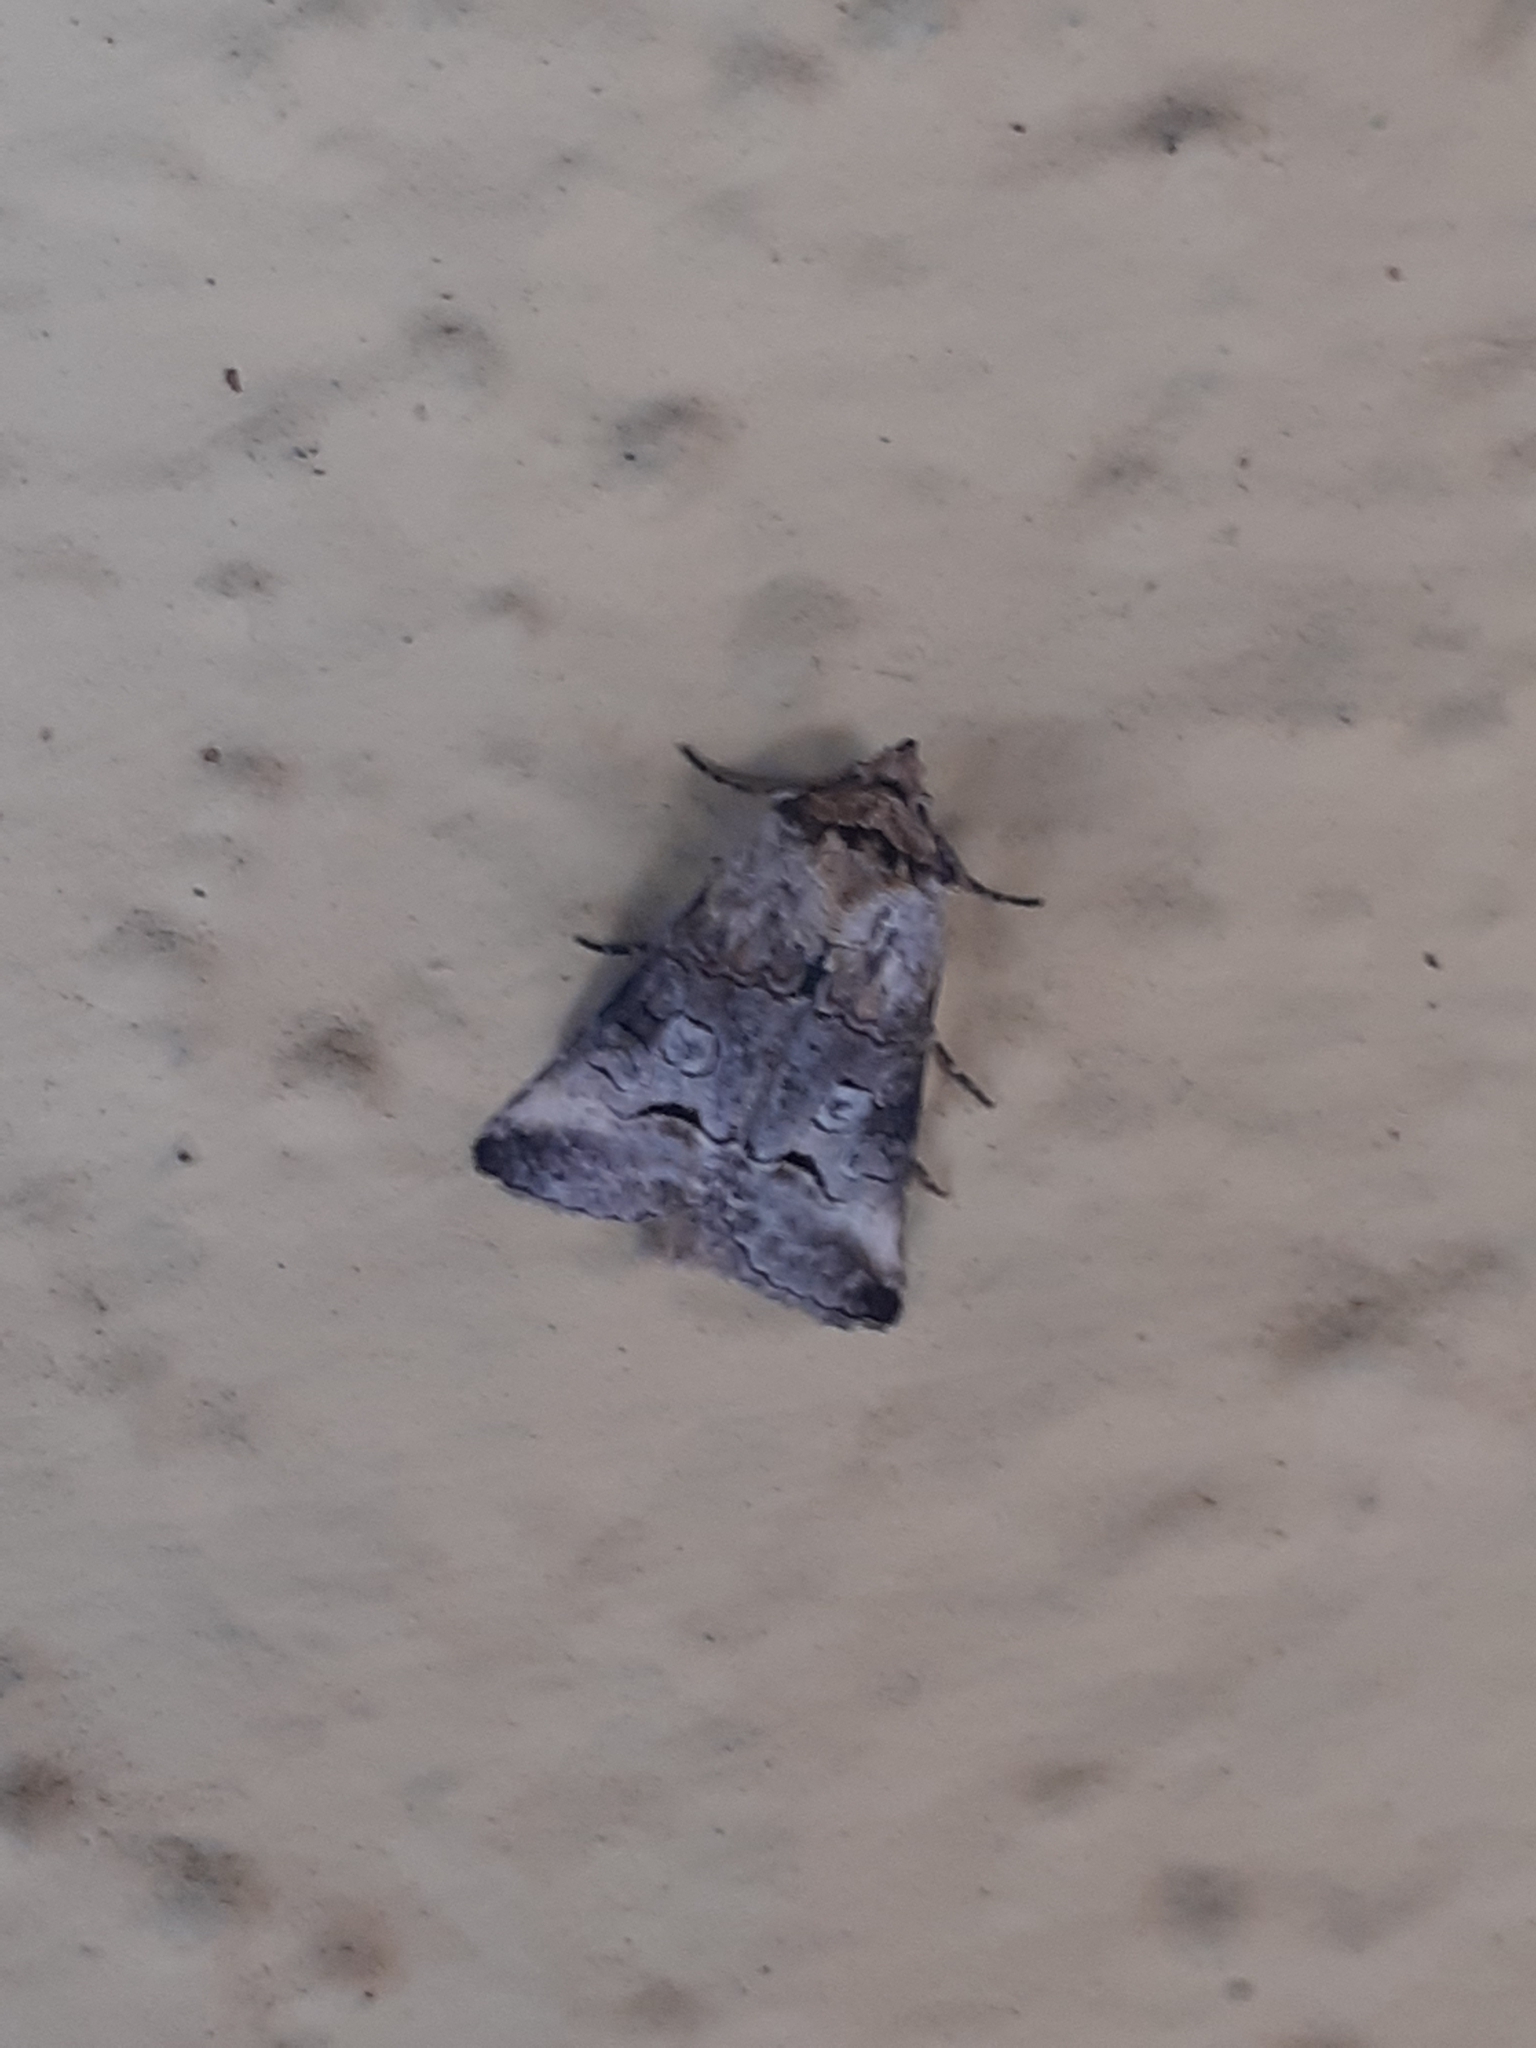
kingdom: Animalia
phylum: Arthropoda
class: Insecta
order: Lepidoptera
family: Noctuidae
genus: Abrostola
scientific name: Abrostola canariensis
